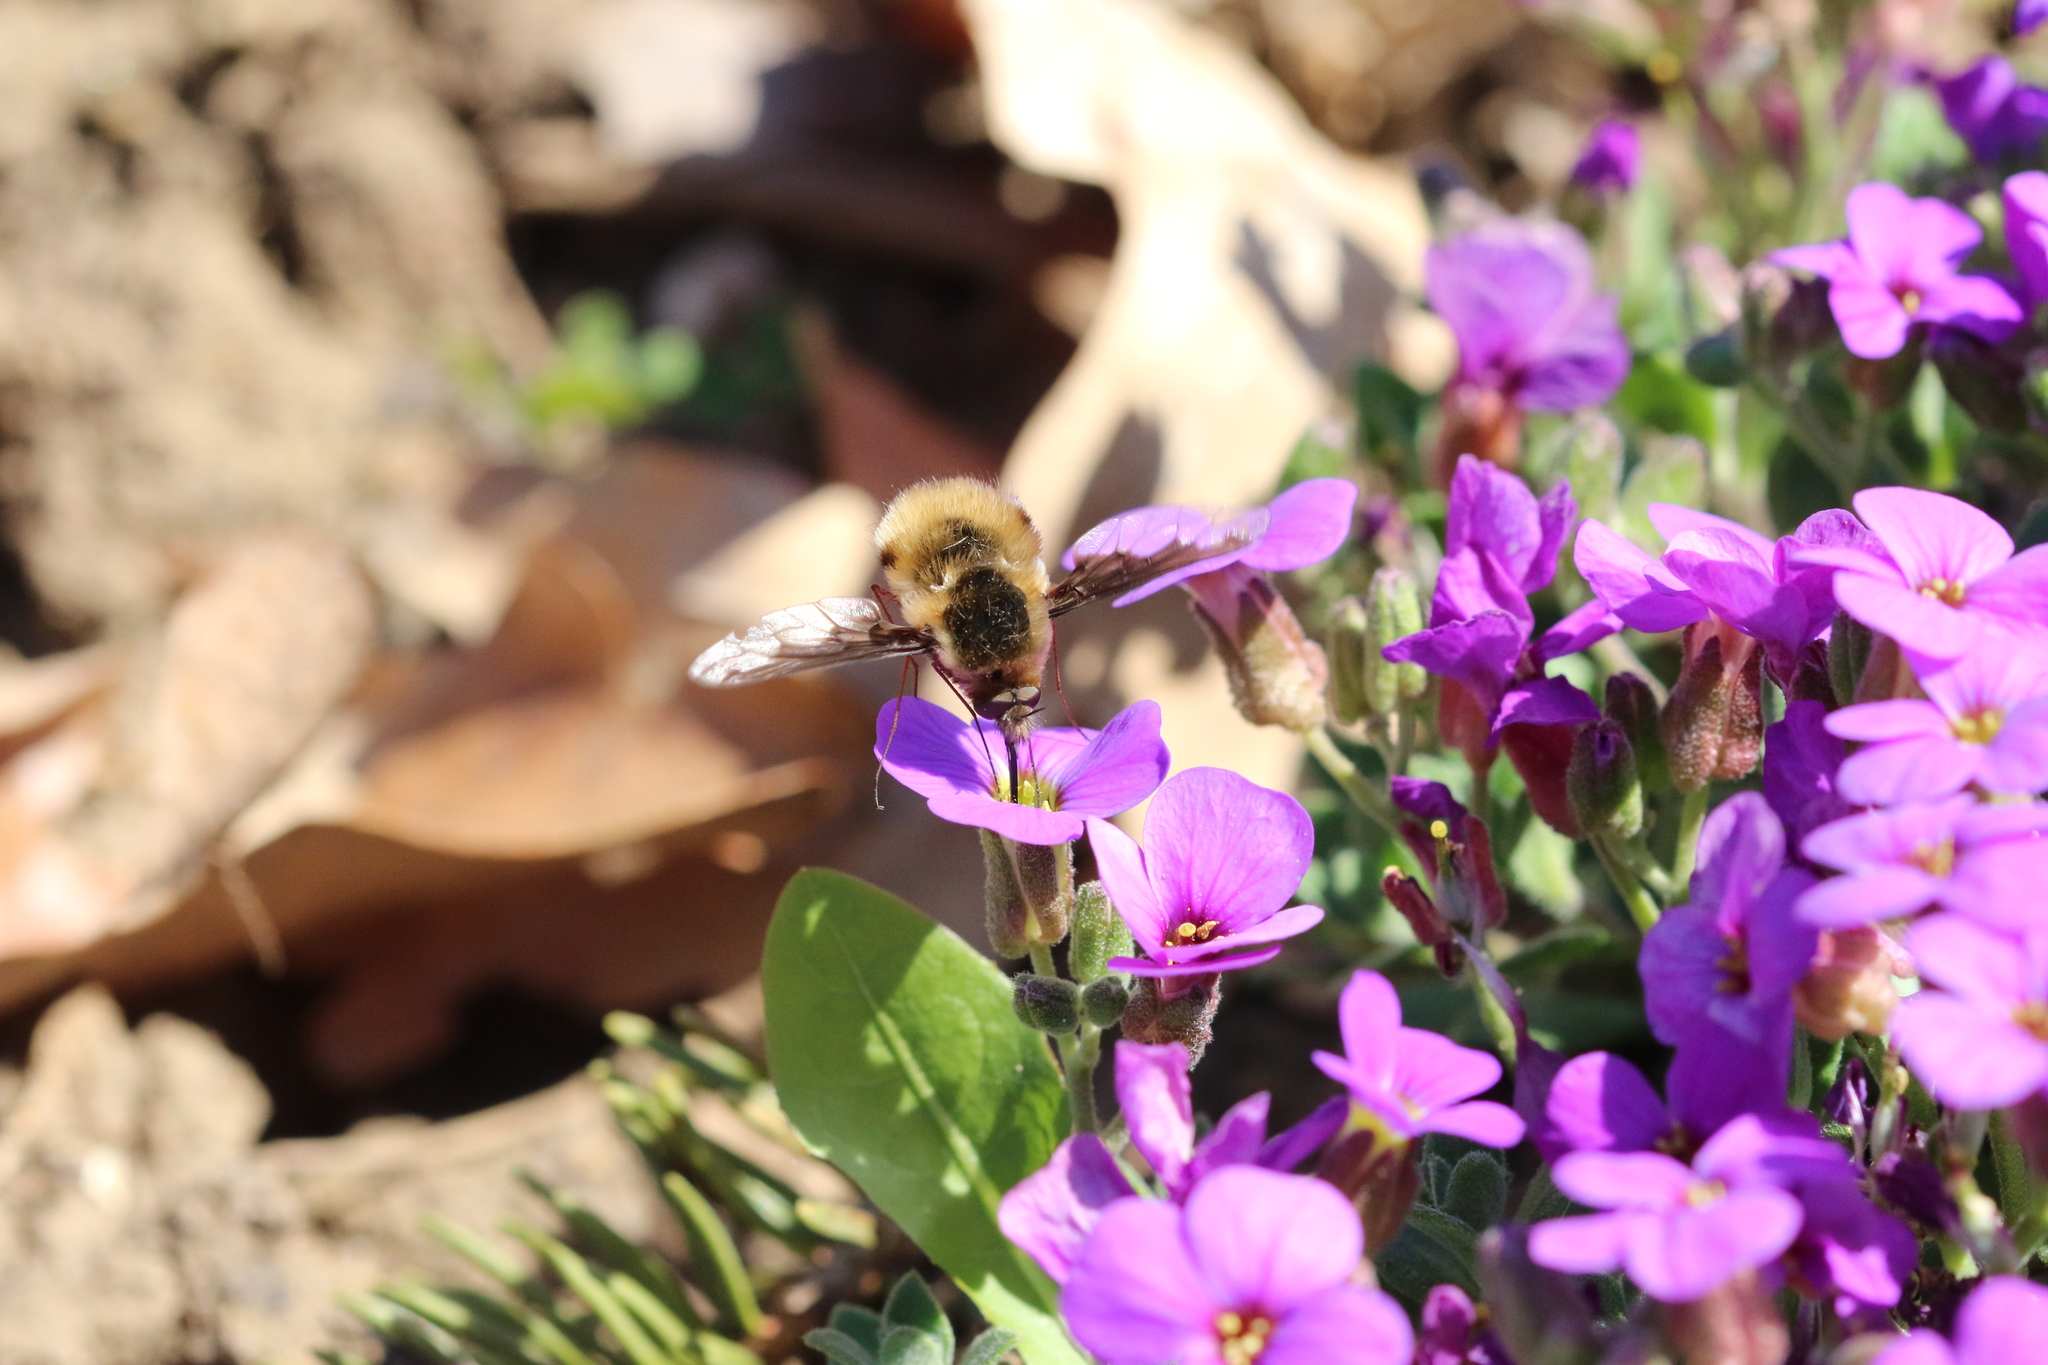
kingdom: Animalia
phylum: Arthropoda
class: Insecta
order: Diptera
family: Bombyliidae
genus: Bombylius
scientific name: Bombylius major
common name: Bee fly
